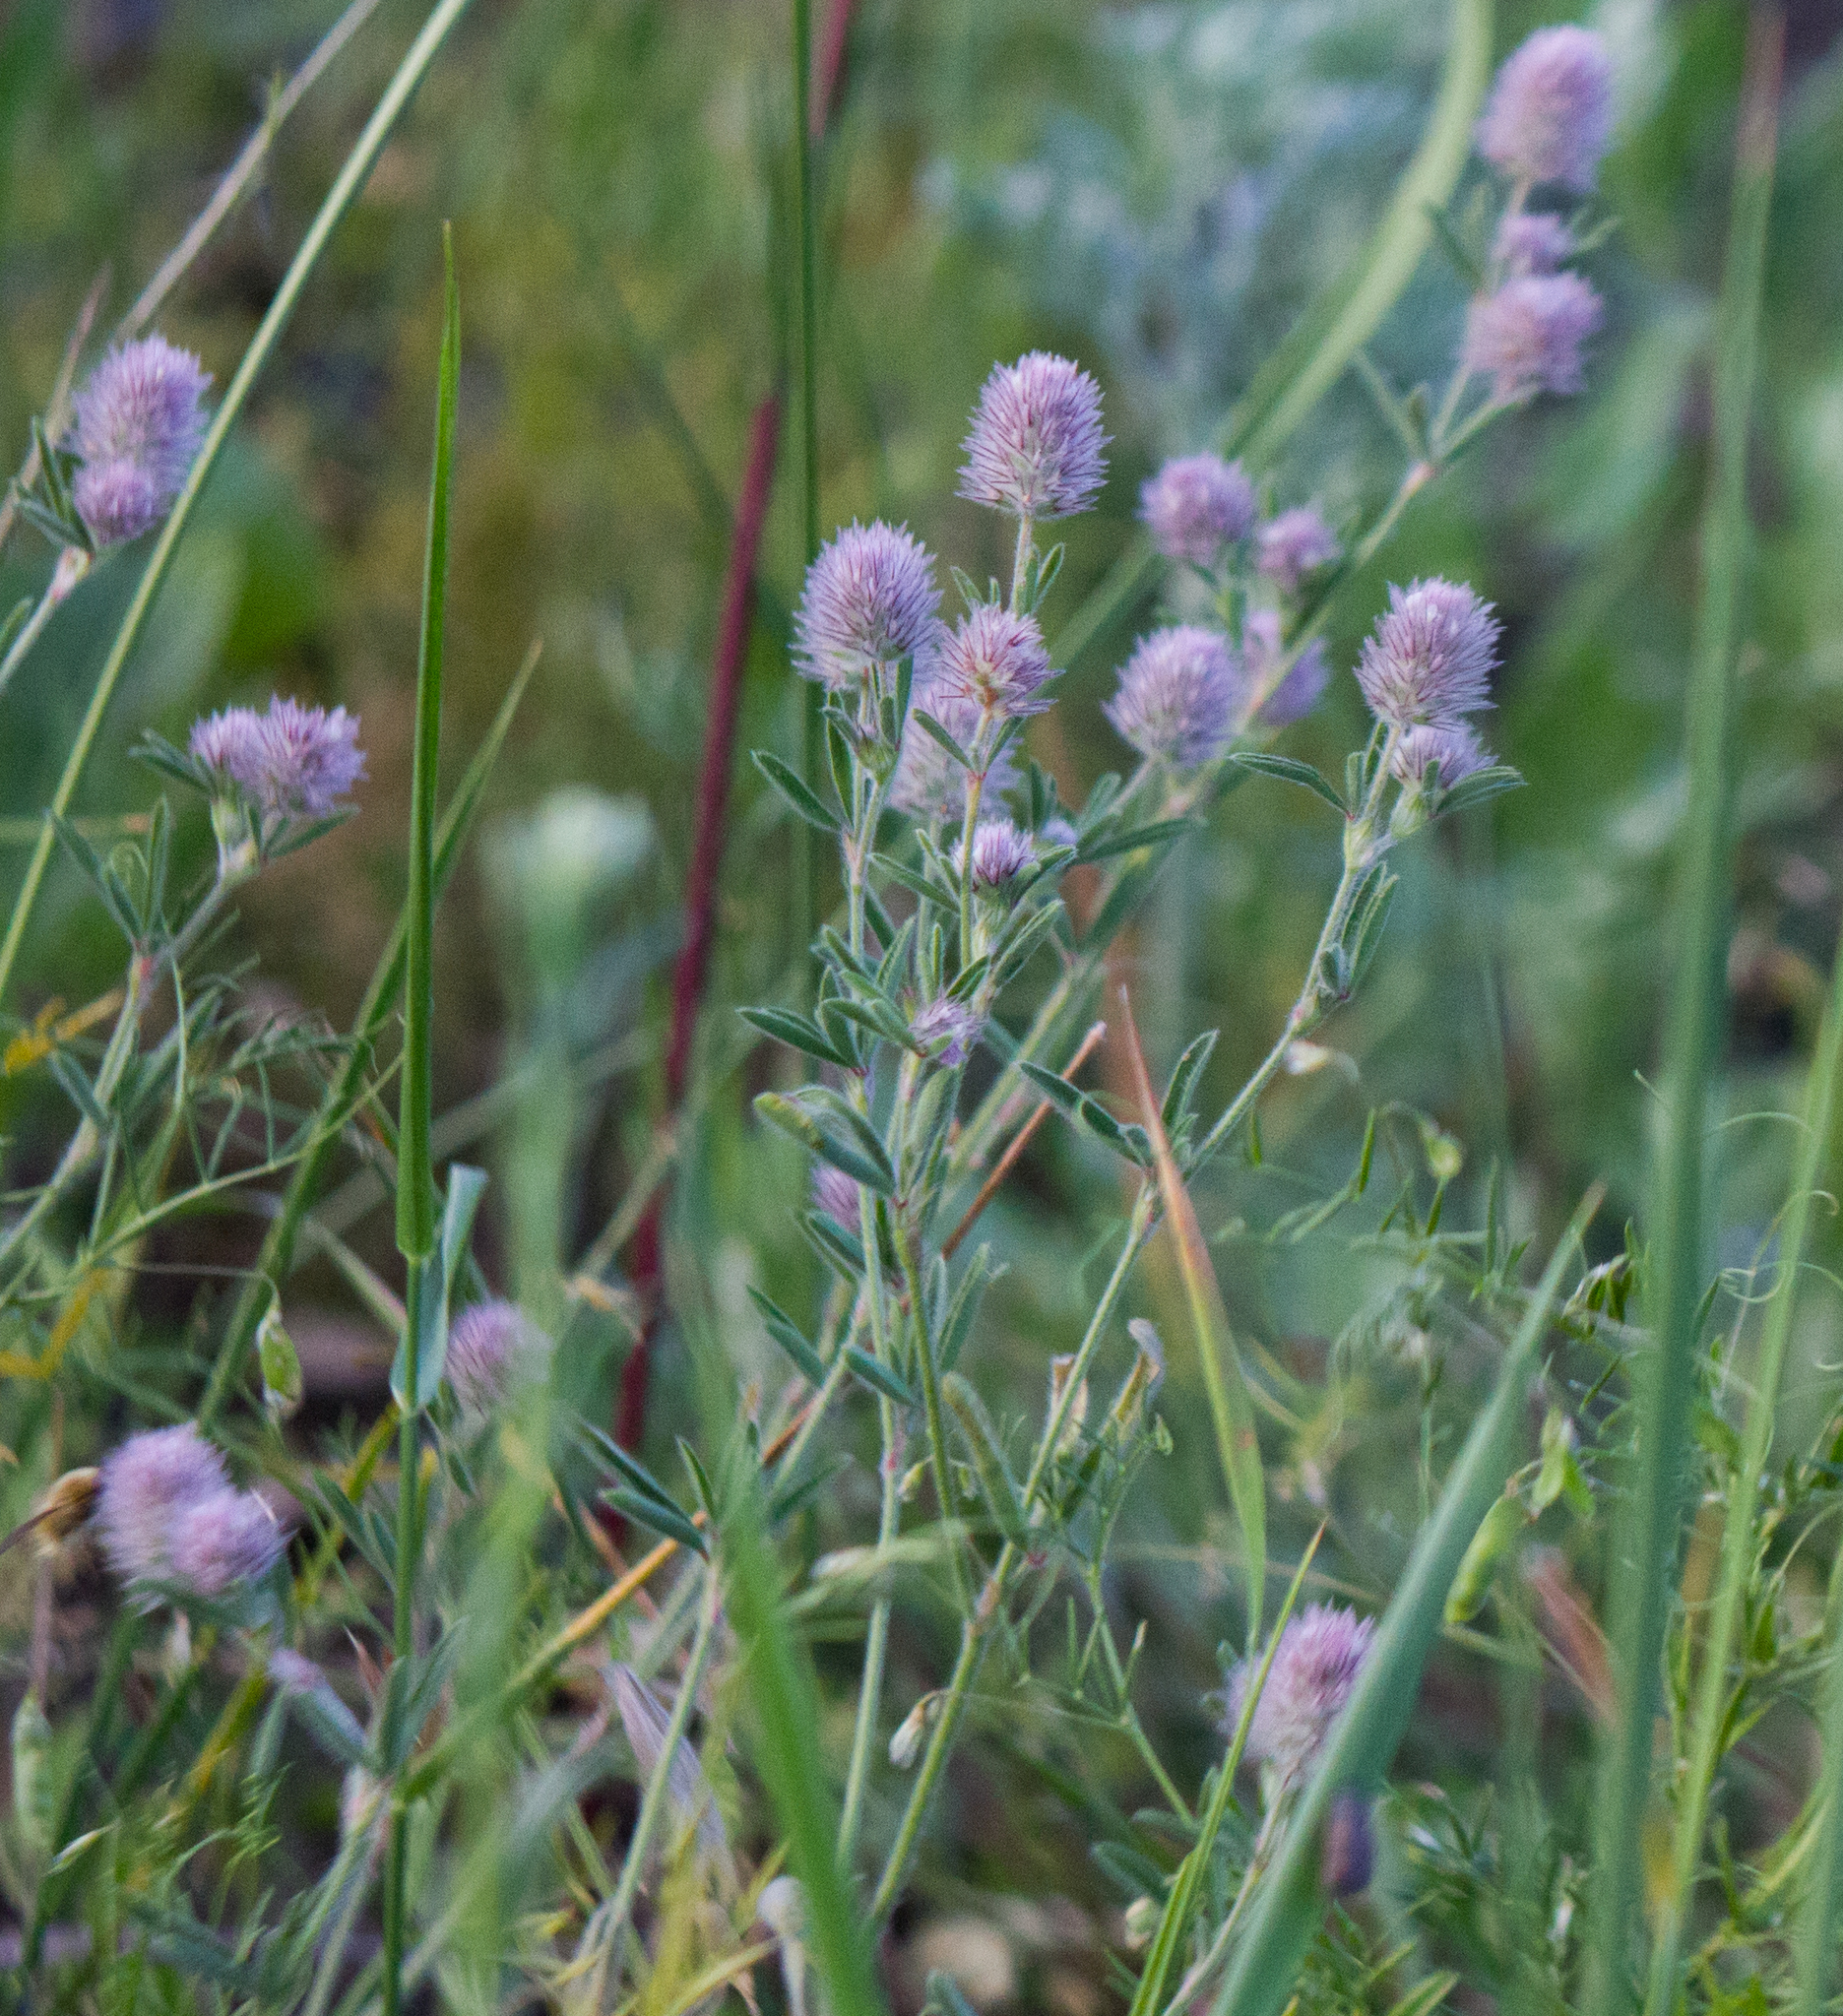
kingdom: Plantae
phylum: Tracheophyta
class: Magnoliopsida
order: Fabales
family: Fabaceae
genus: Trifolium
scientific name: Trifolium arvense
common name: Hare's-foot clover
